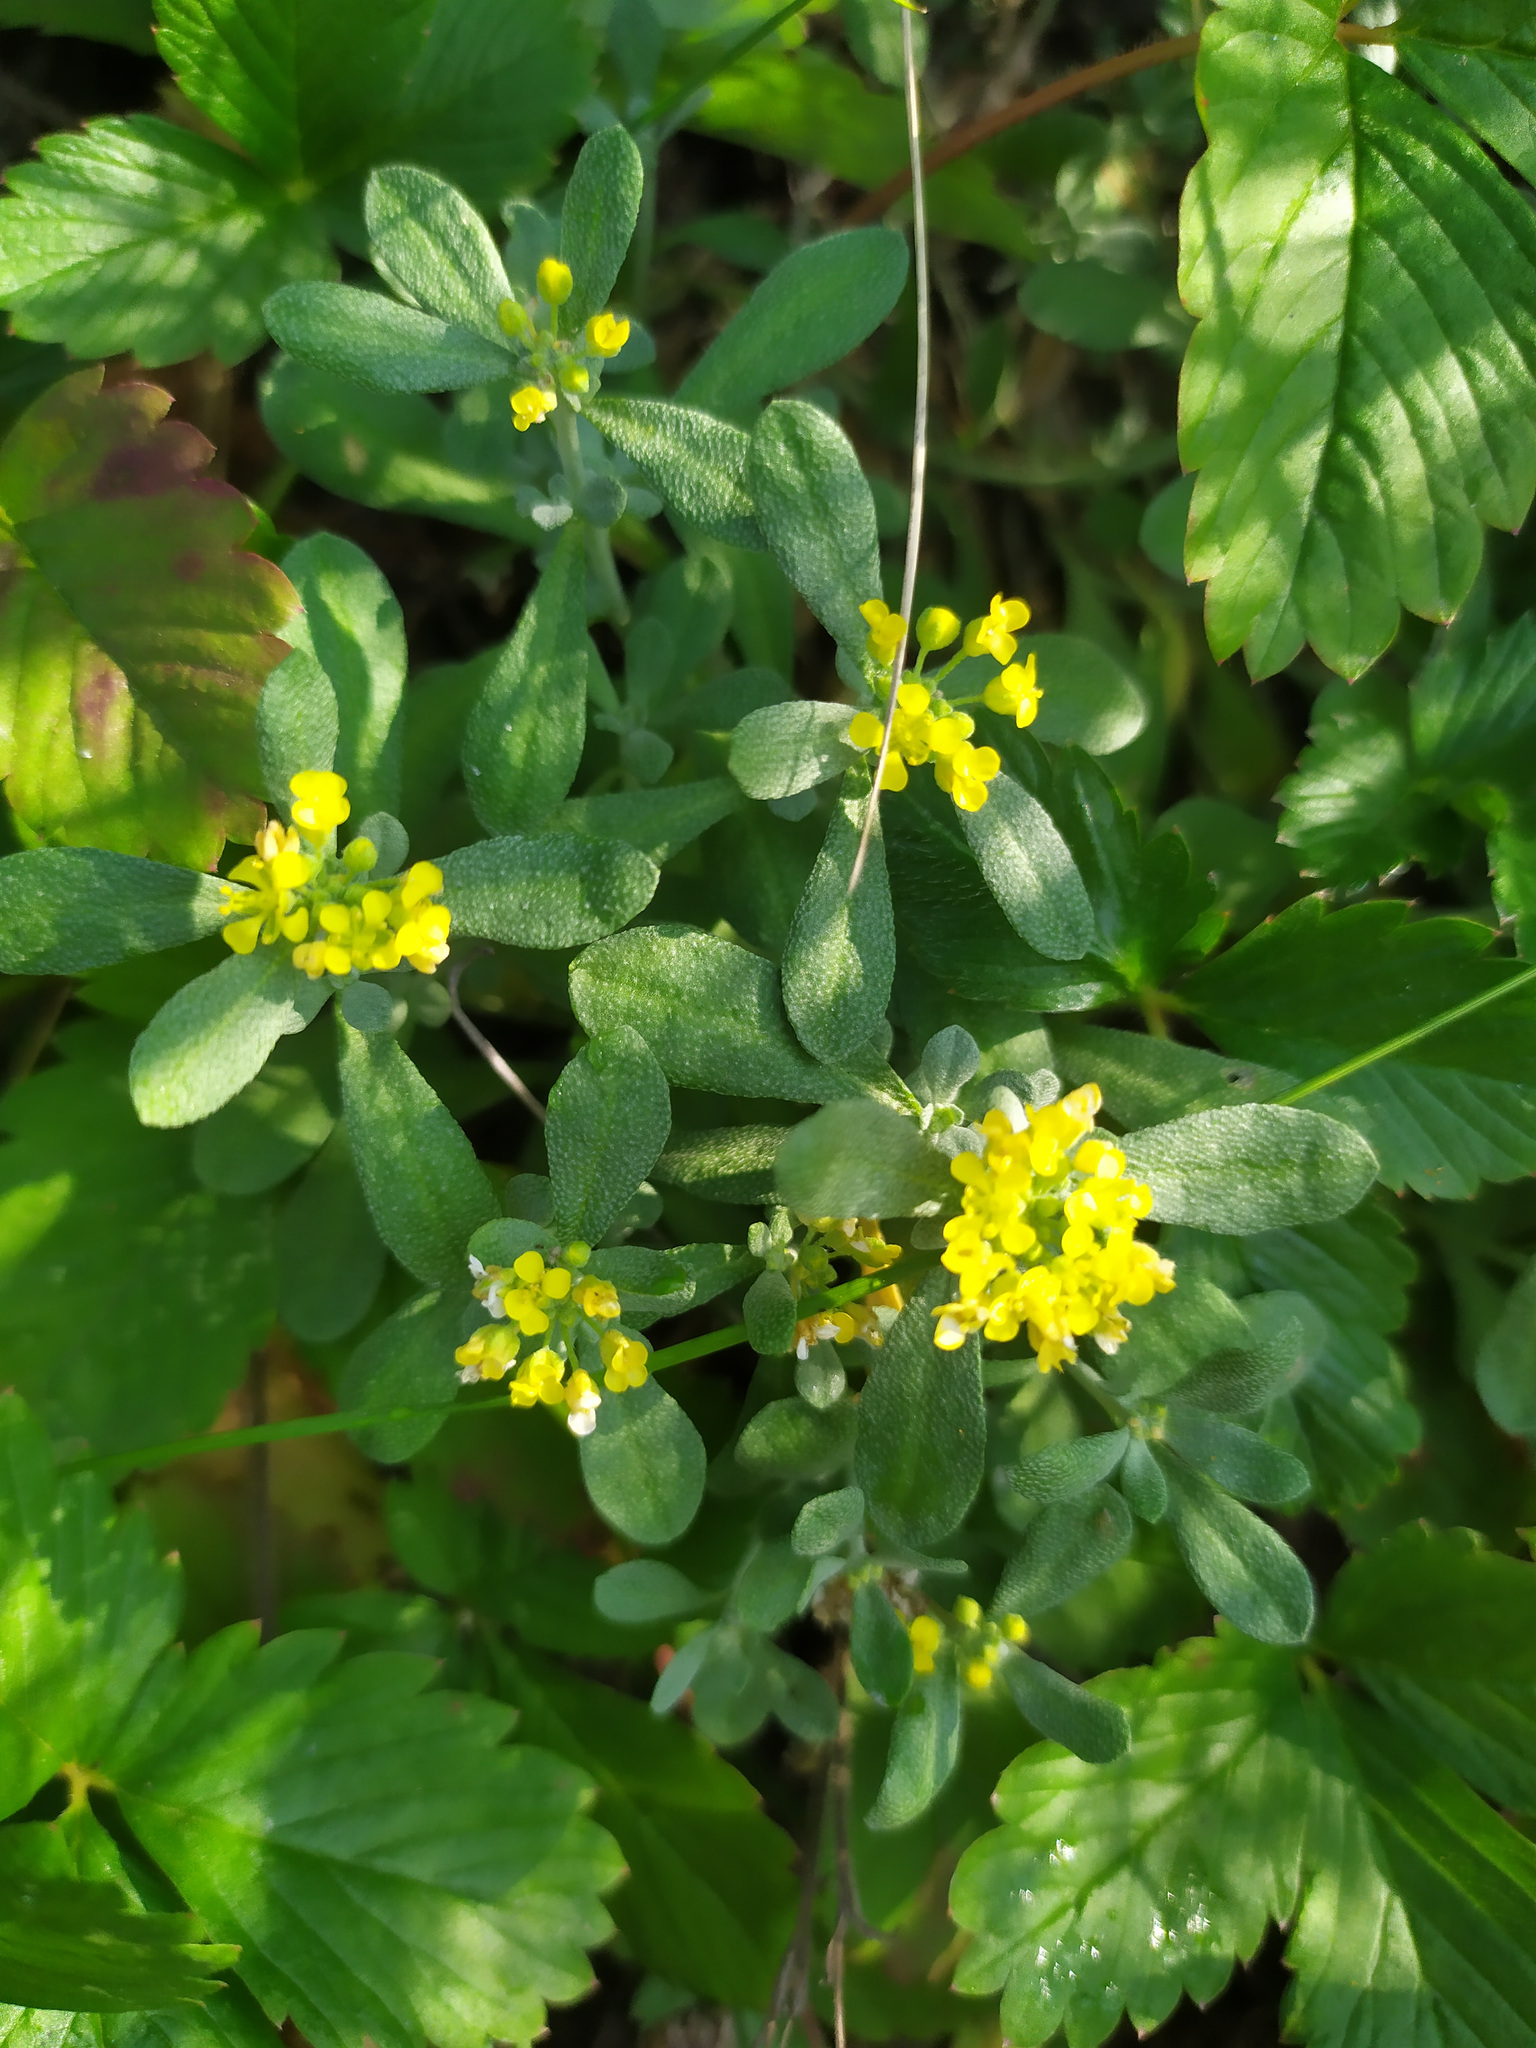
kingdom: Plantae
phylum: Tracheophyta
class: Magnoliopsida
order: Brassicales
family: Brassicaceae
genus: Odontarrhena
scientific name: Odontarrhena obovata
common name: American alyssum
